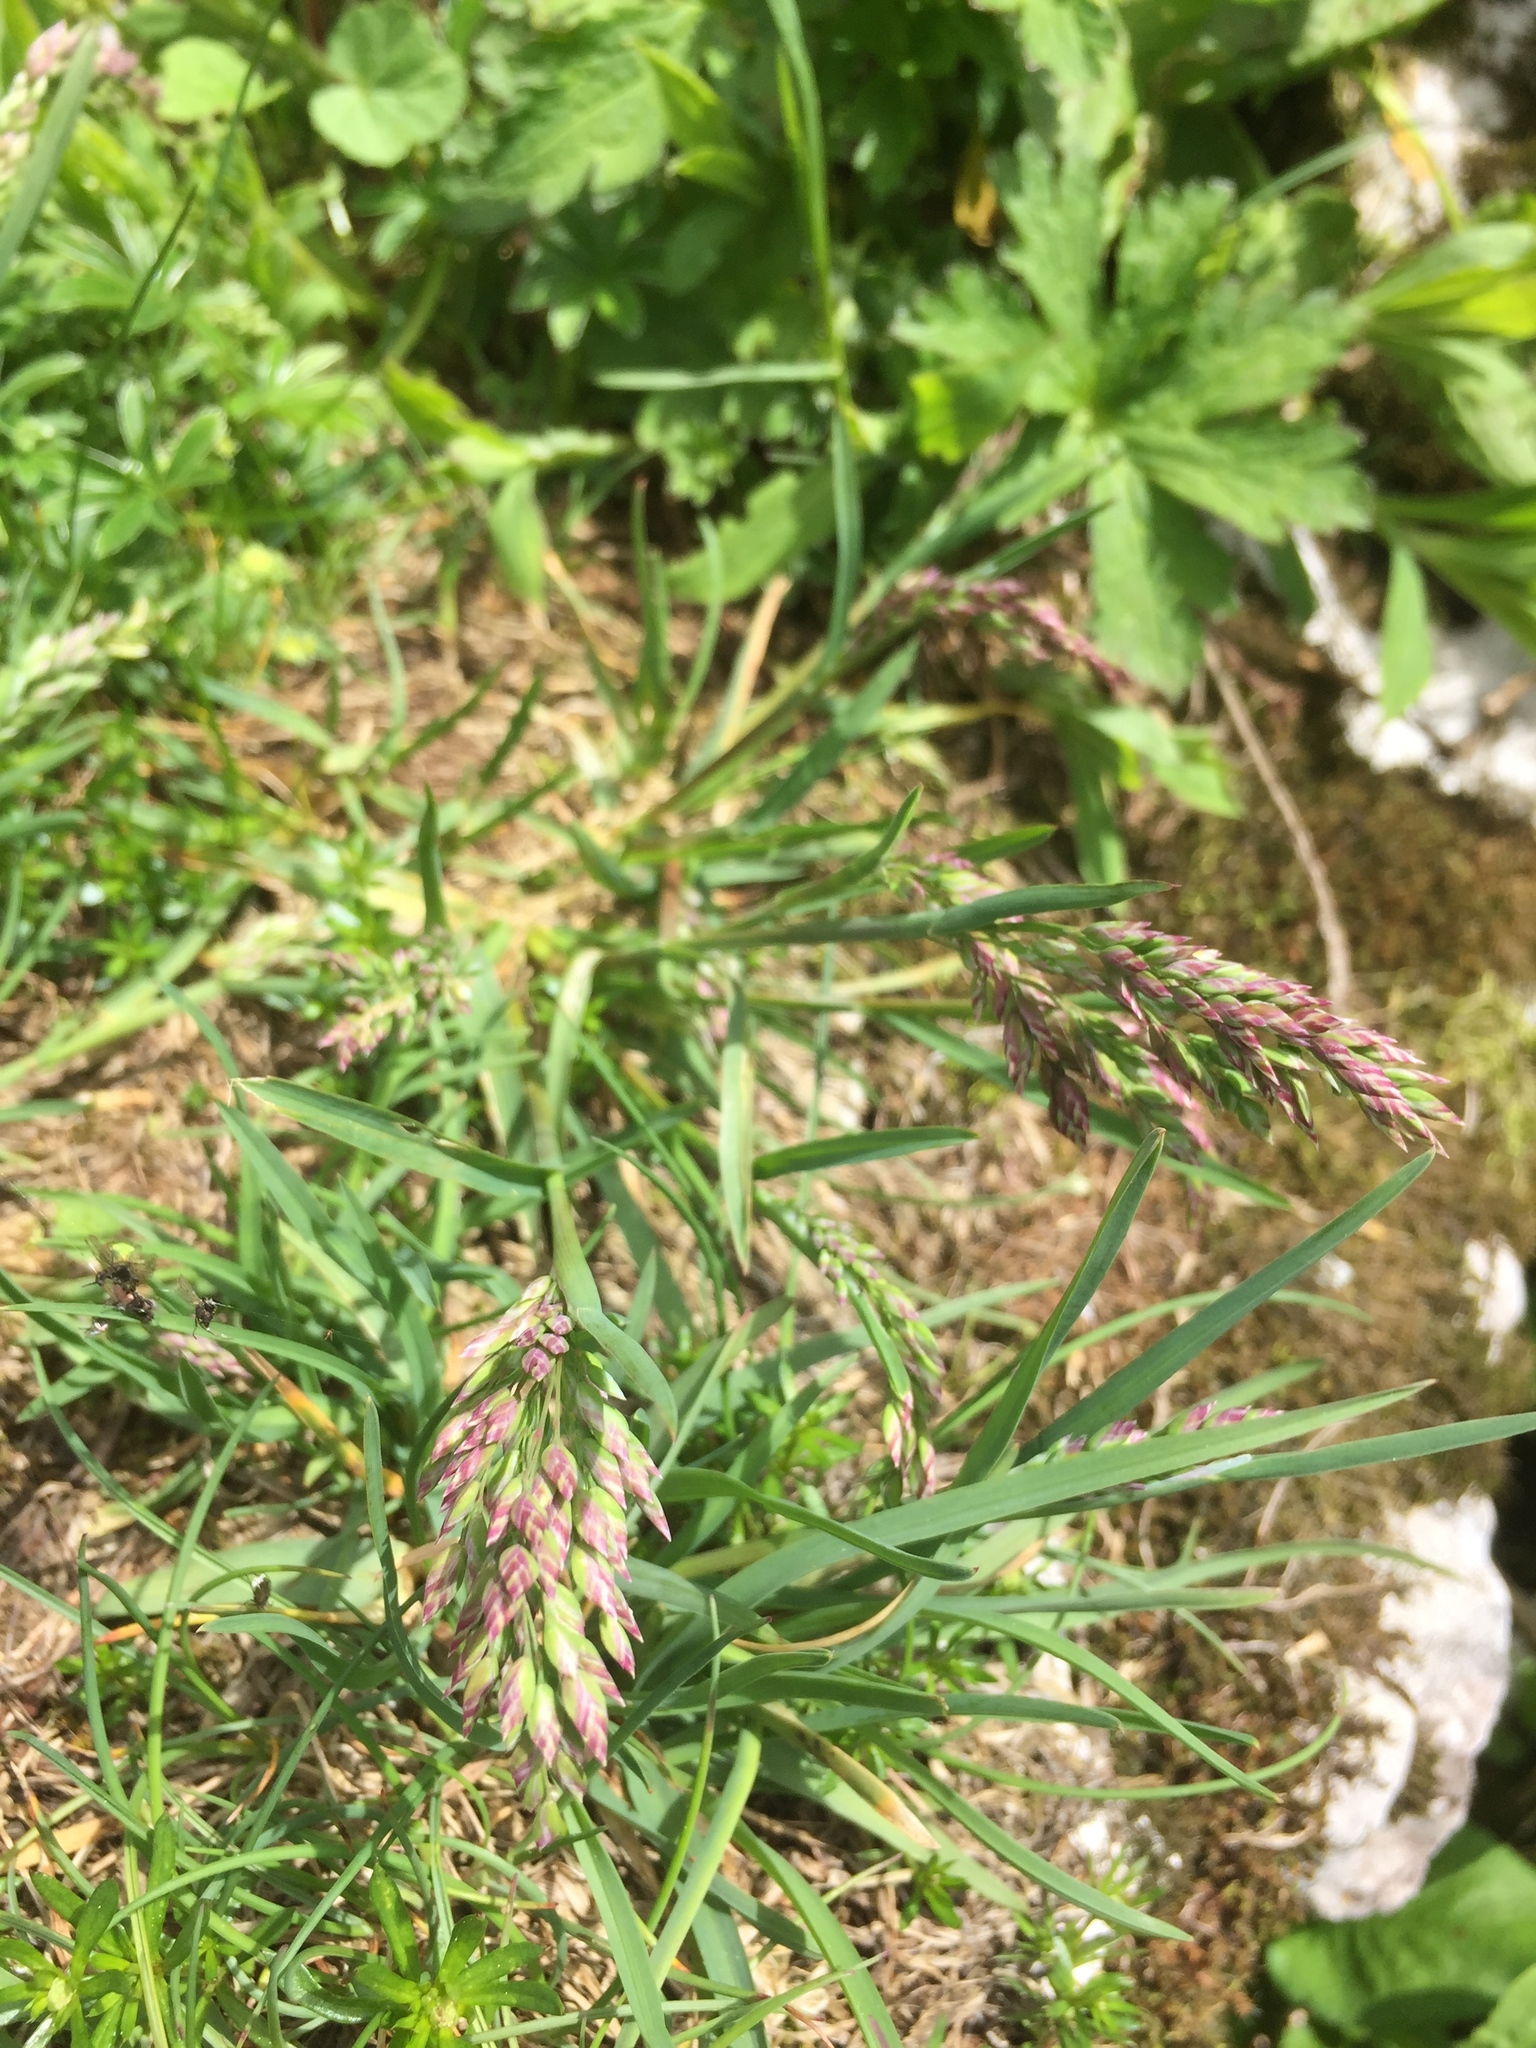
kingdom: Plantae
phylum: Tracheophyta
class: Liliopsida
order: Poales
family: Poaceae
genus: Holcus
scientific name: Holcus lanatus
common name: Yorkshire-fog
